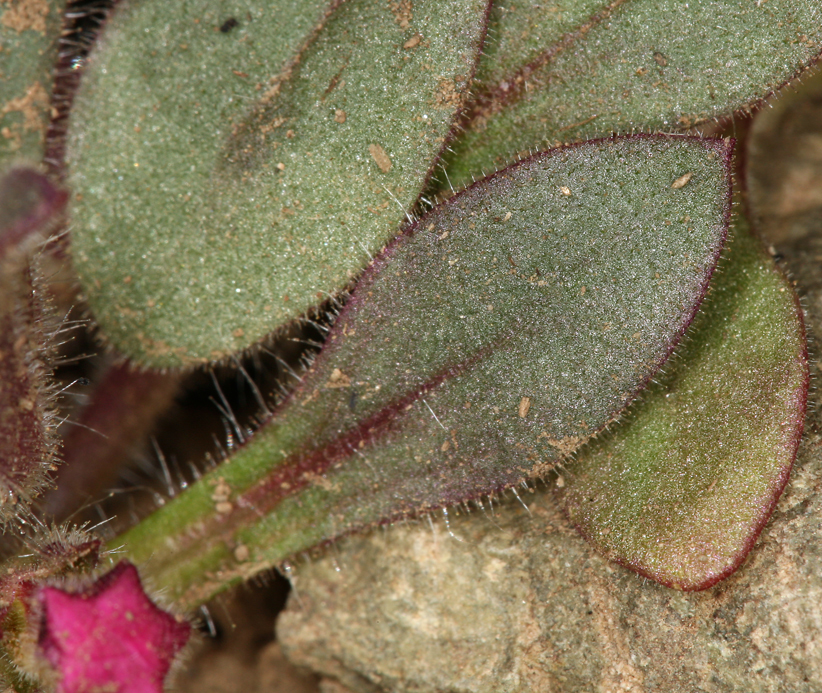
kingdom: Plantae
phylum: Tracheophyta
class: Magnoliopsida
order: Lamiales
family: Phrymaceae
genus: Diplacus
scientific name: Diplacus bigelovii
